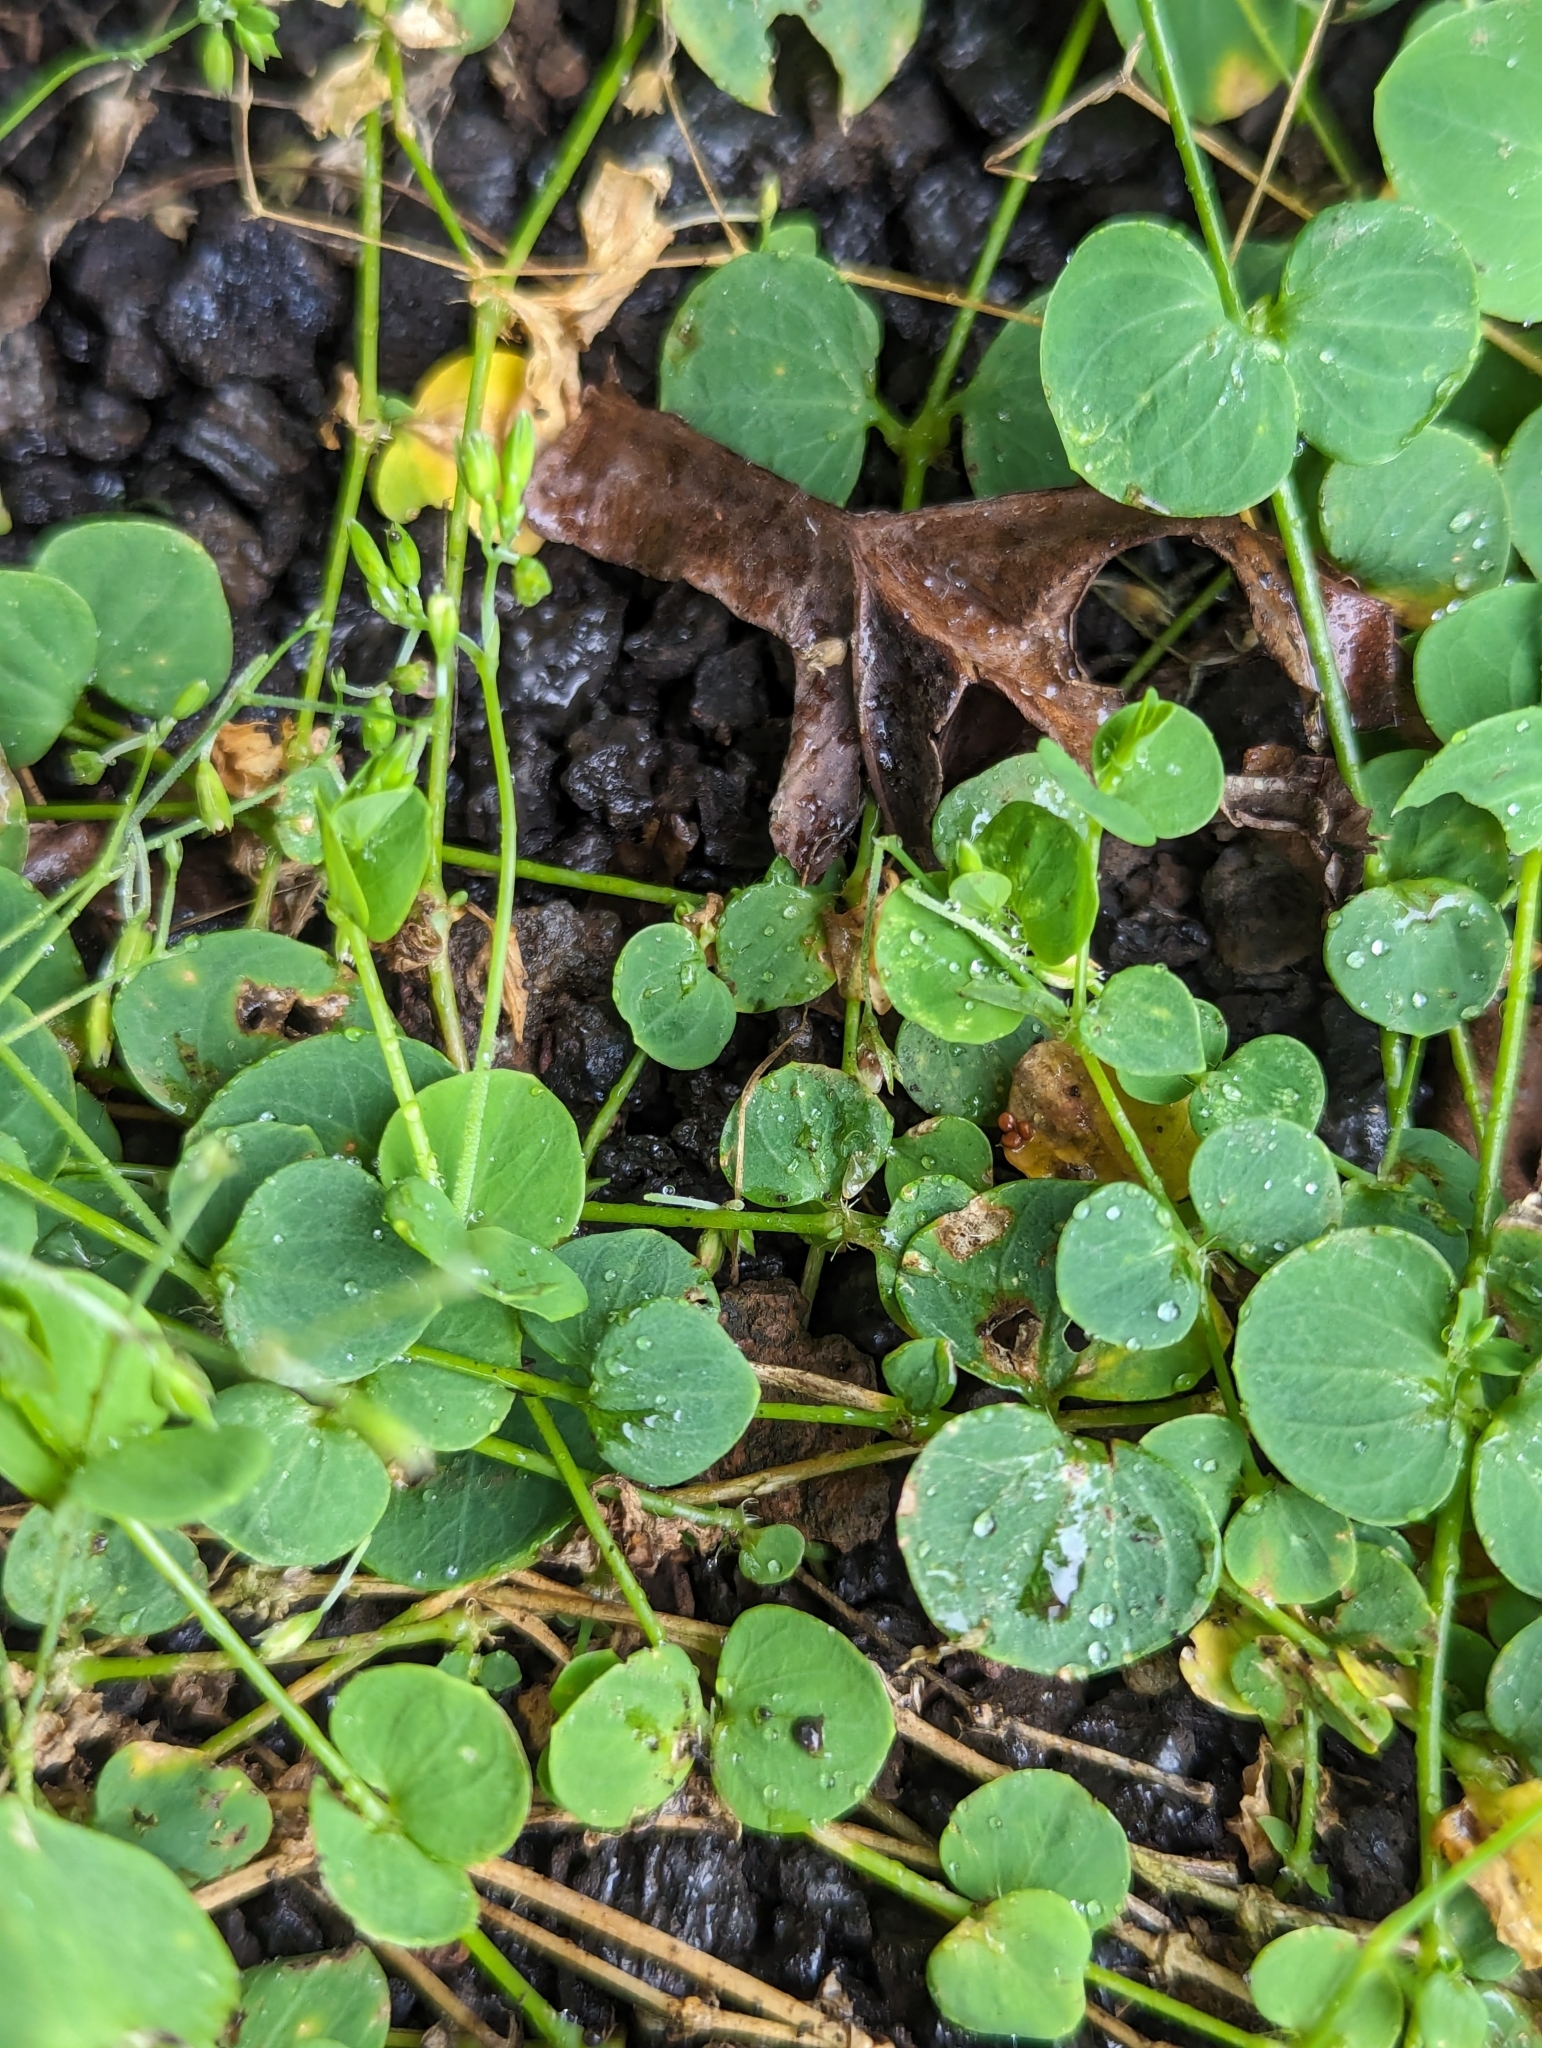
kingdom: Plantae
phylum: Tracheophyta
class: Magnoliopsida
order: Caryophyllales
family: Caryophyllaceae
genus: Drymaria
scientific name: Drymaria cordata
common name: Whitesnow
